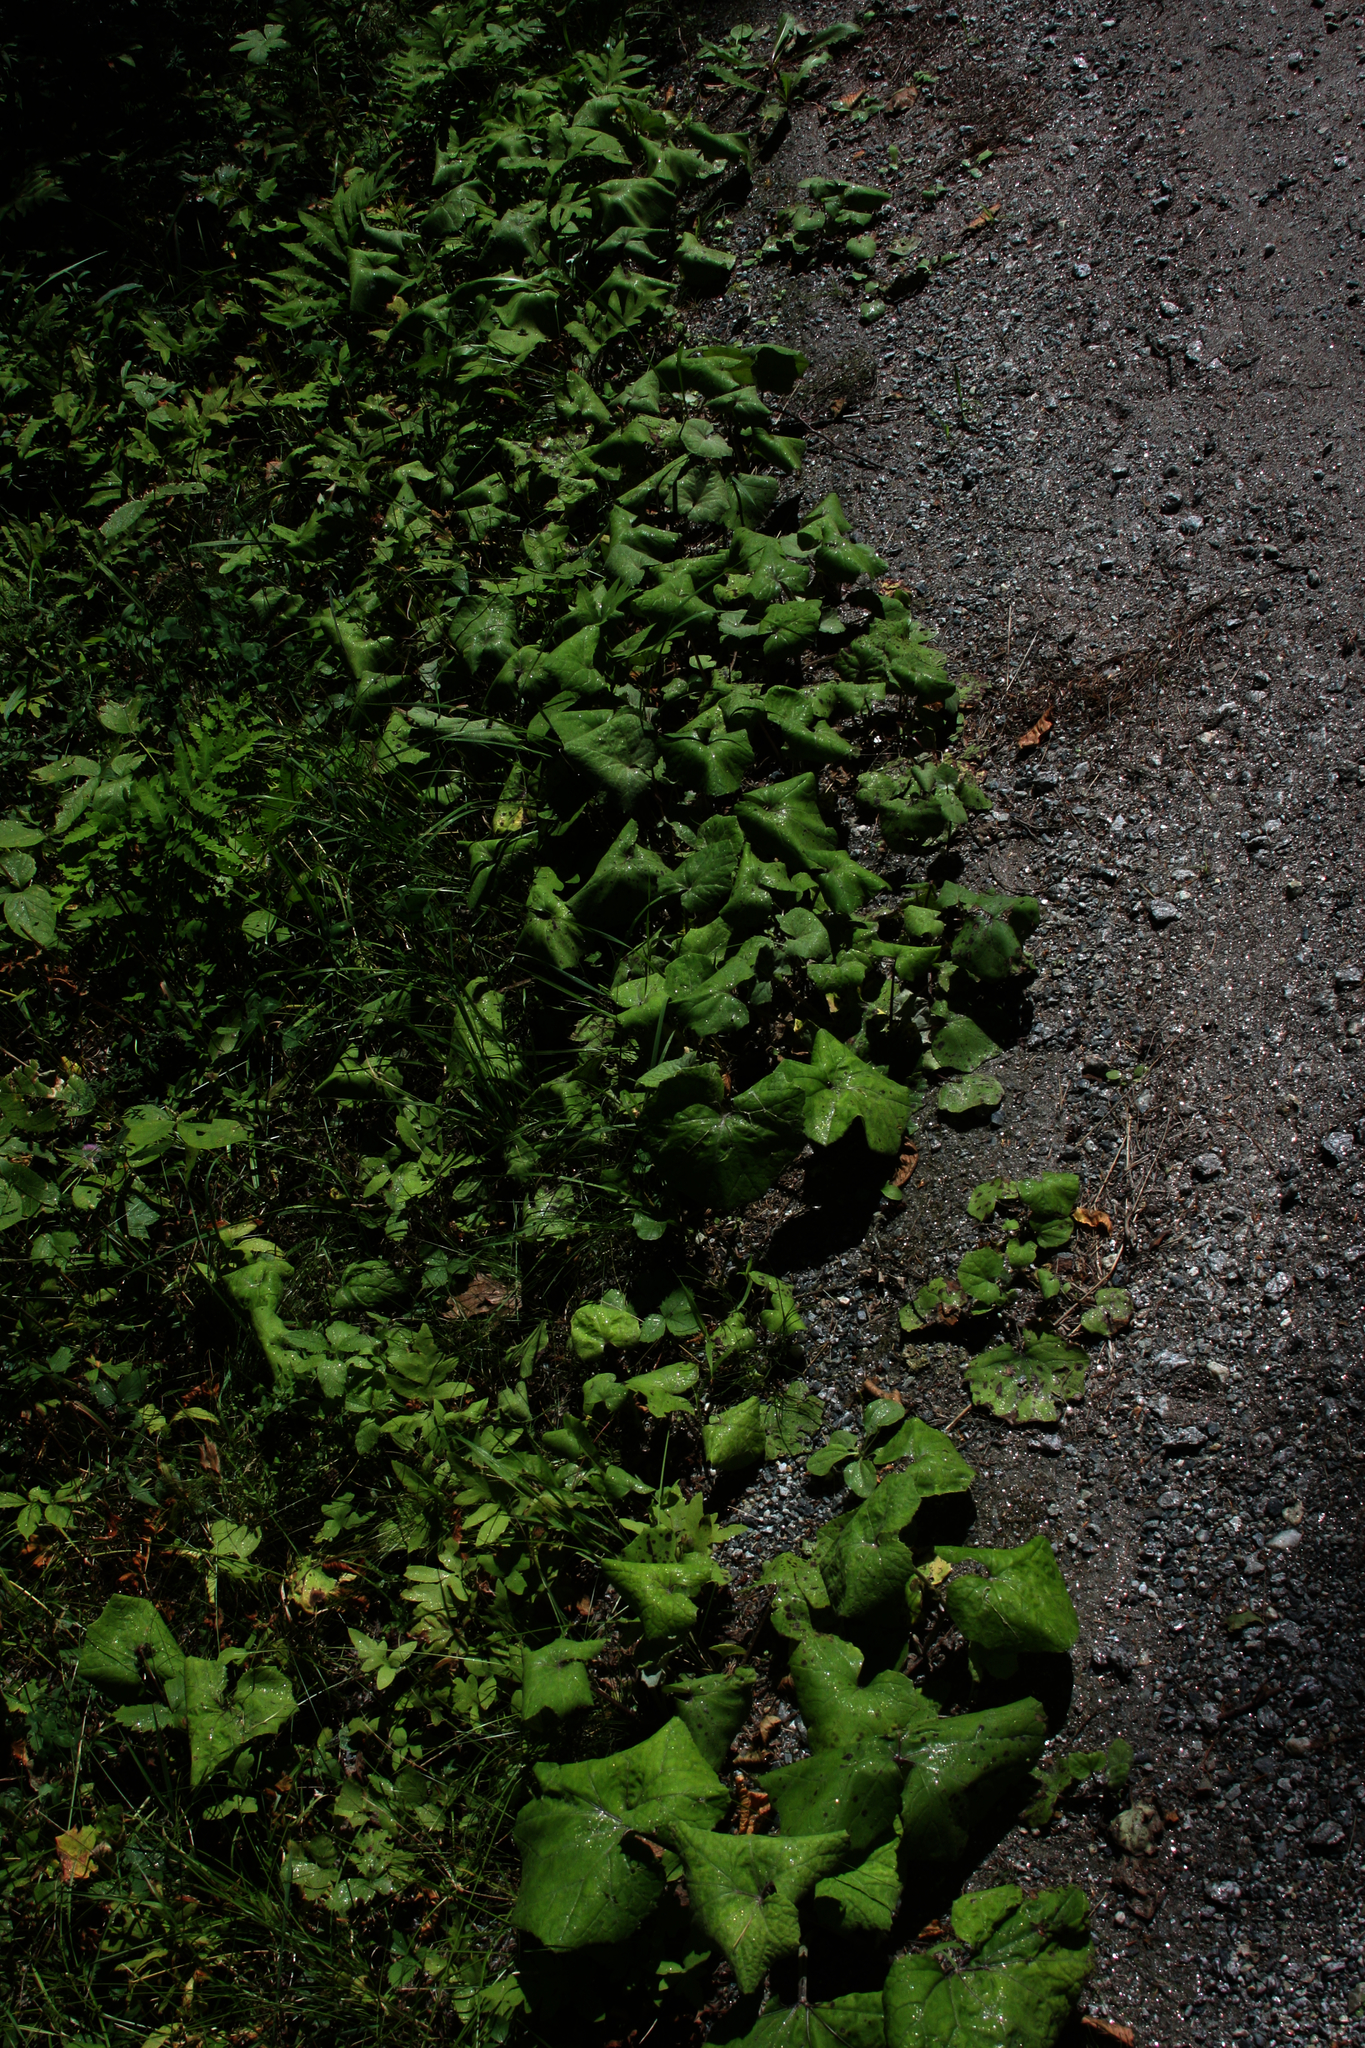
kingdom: Plantae
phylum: Tracheophyta
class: Magnoliopsida
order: Asterales
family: Asteraceae
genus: Tussilago
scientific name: Tussilago farfara
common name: Coltsfoot
